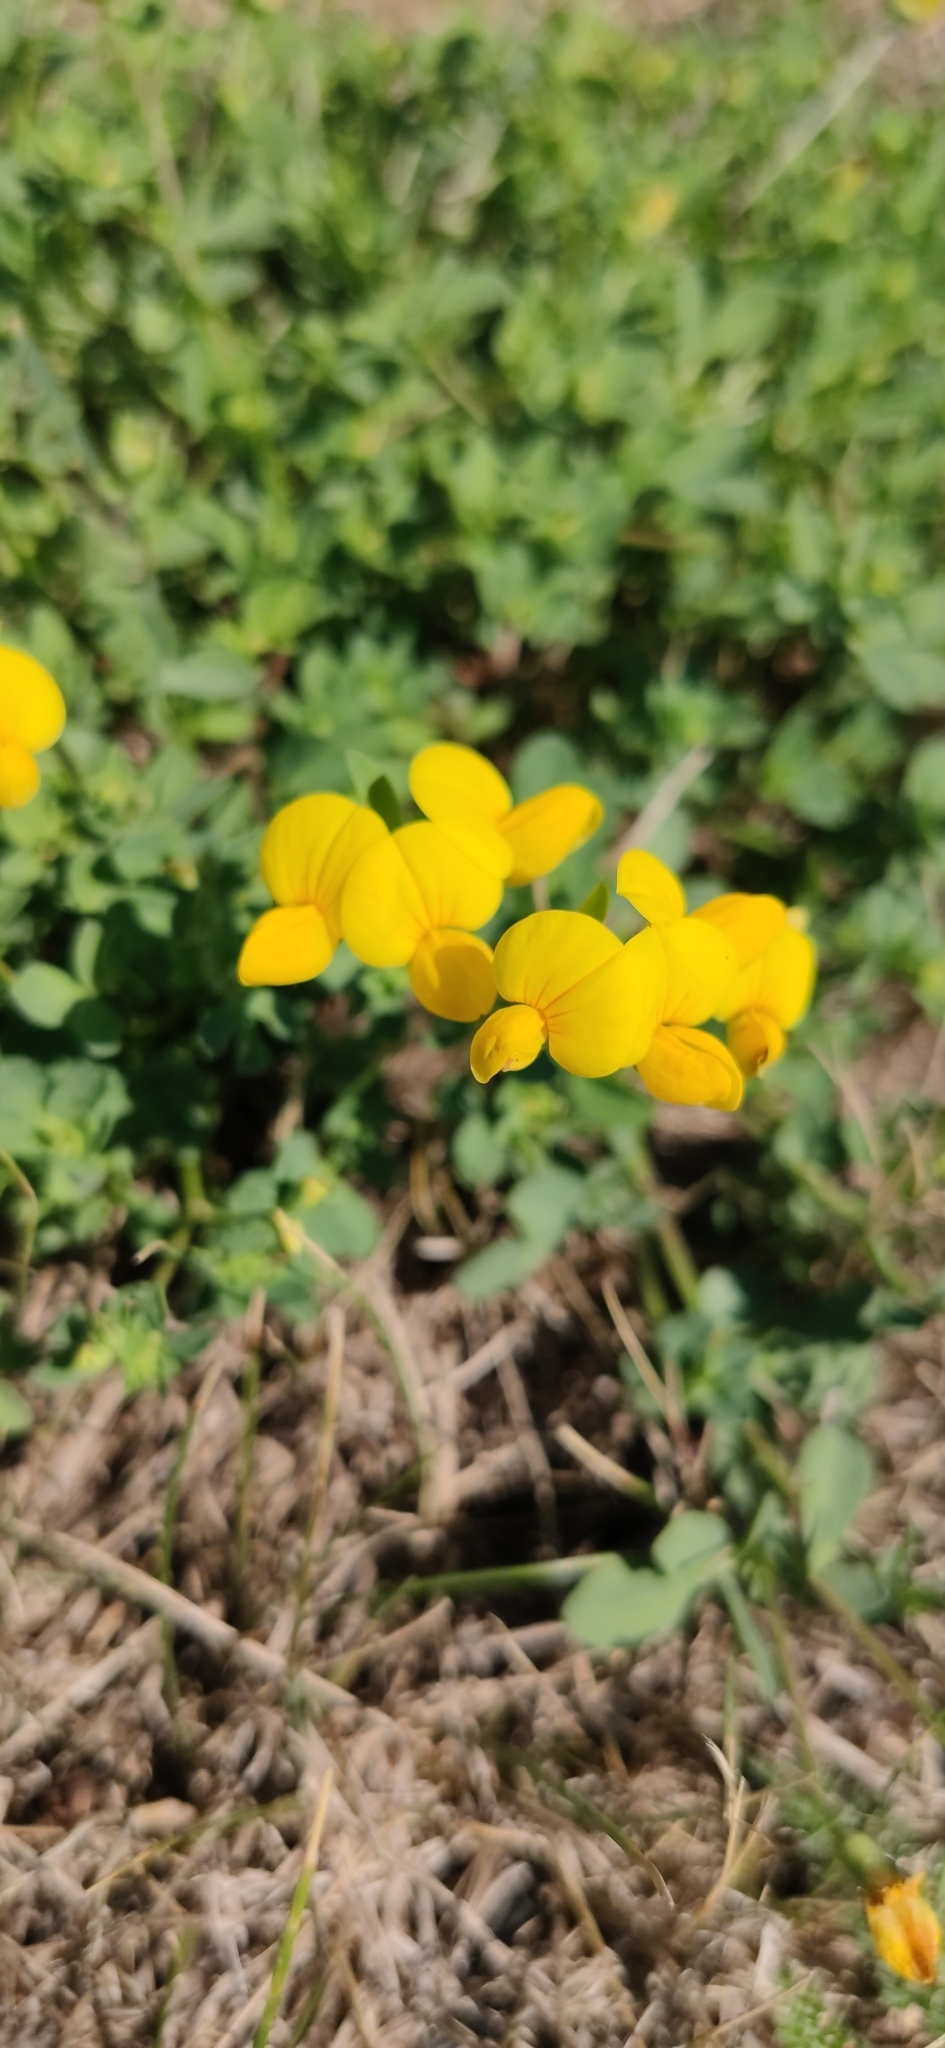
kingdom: Plantae
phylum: Tracheophyta
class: Magnoliopsida
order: Fabales
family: Fabaceae
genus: Lotus
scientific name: Lotus corniculatus
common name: Common bird's-foot-trefoil
